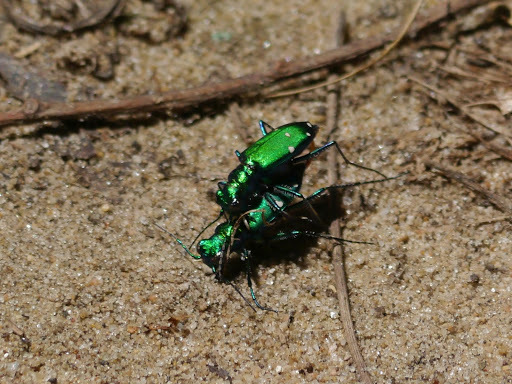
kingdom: Animalia
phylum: Arthropoda
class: Insecta
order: Coleoptera
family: Carabidae
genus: Cicindela
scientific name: Cicindela sexguttata
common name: Six-spotted tiger beetle
